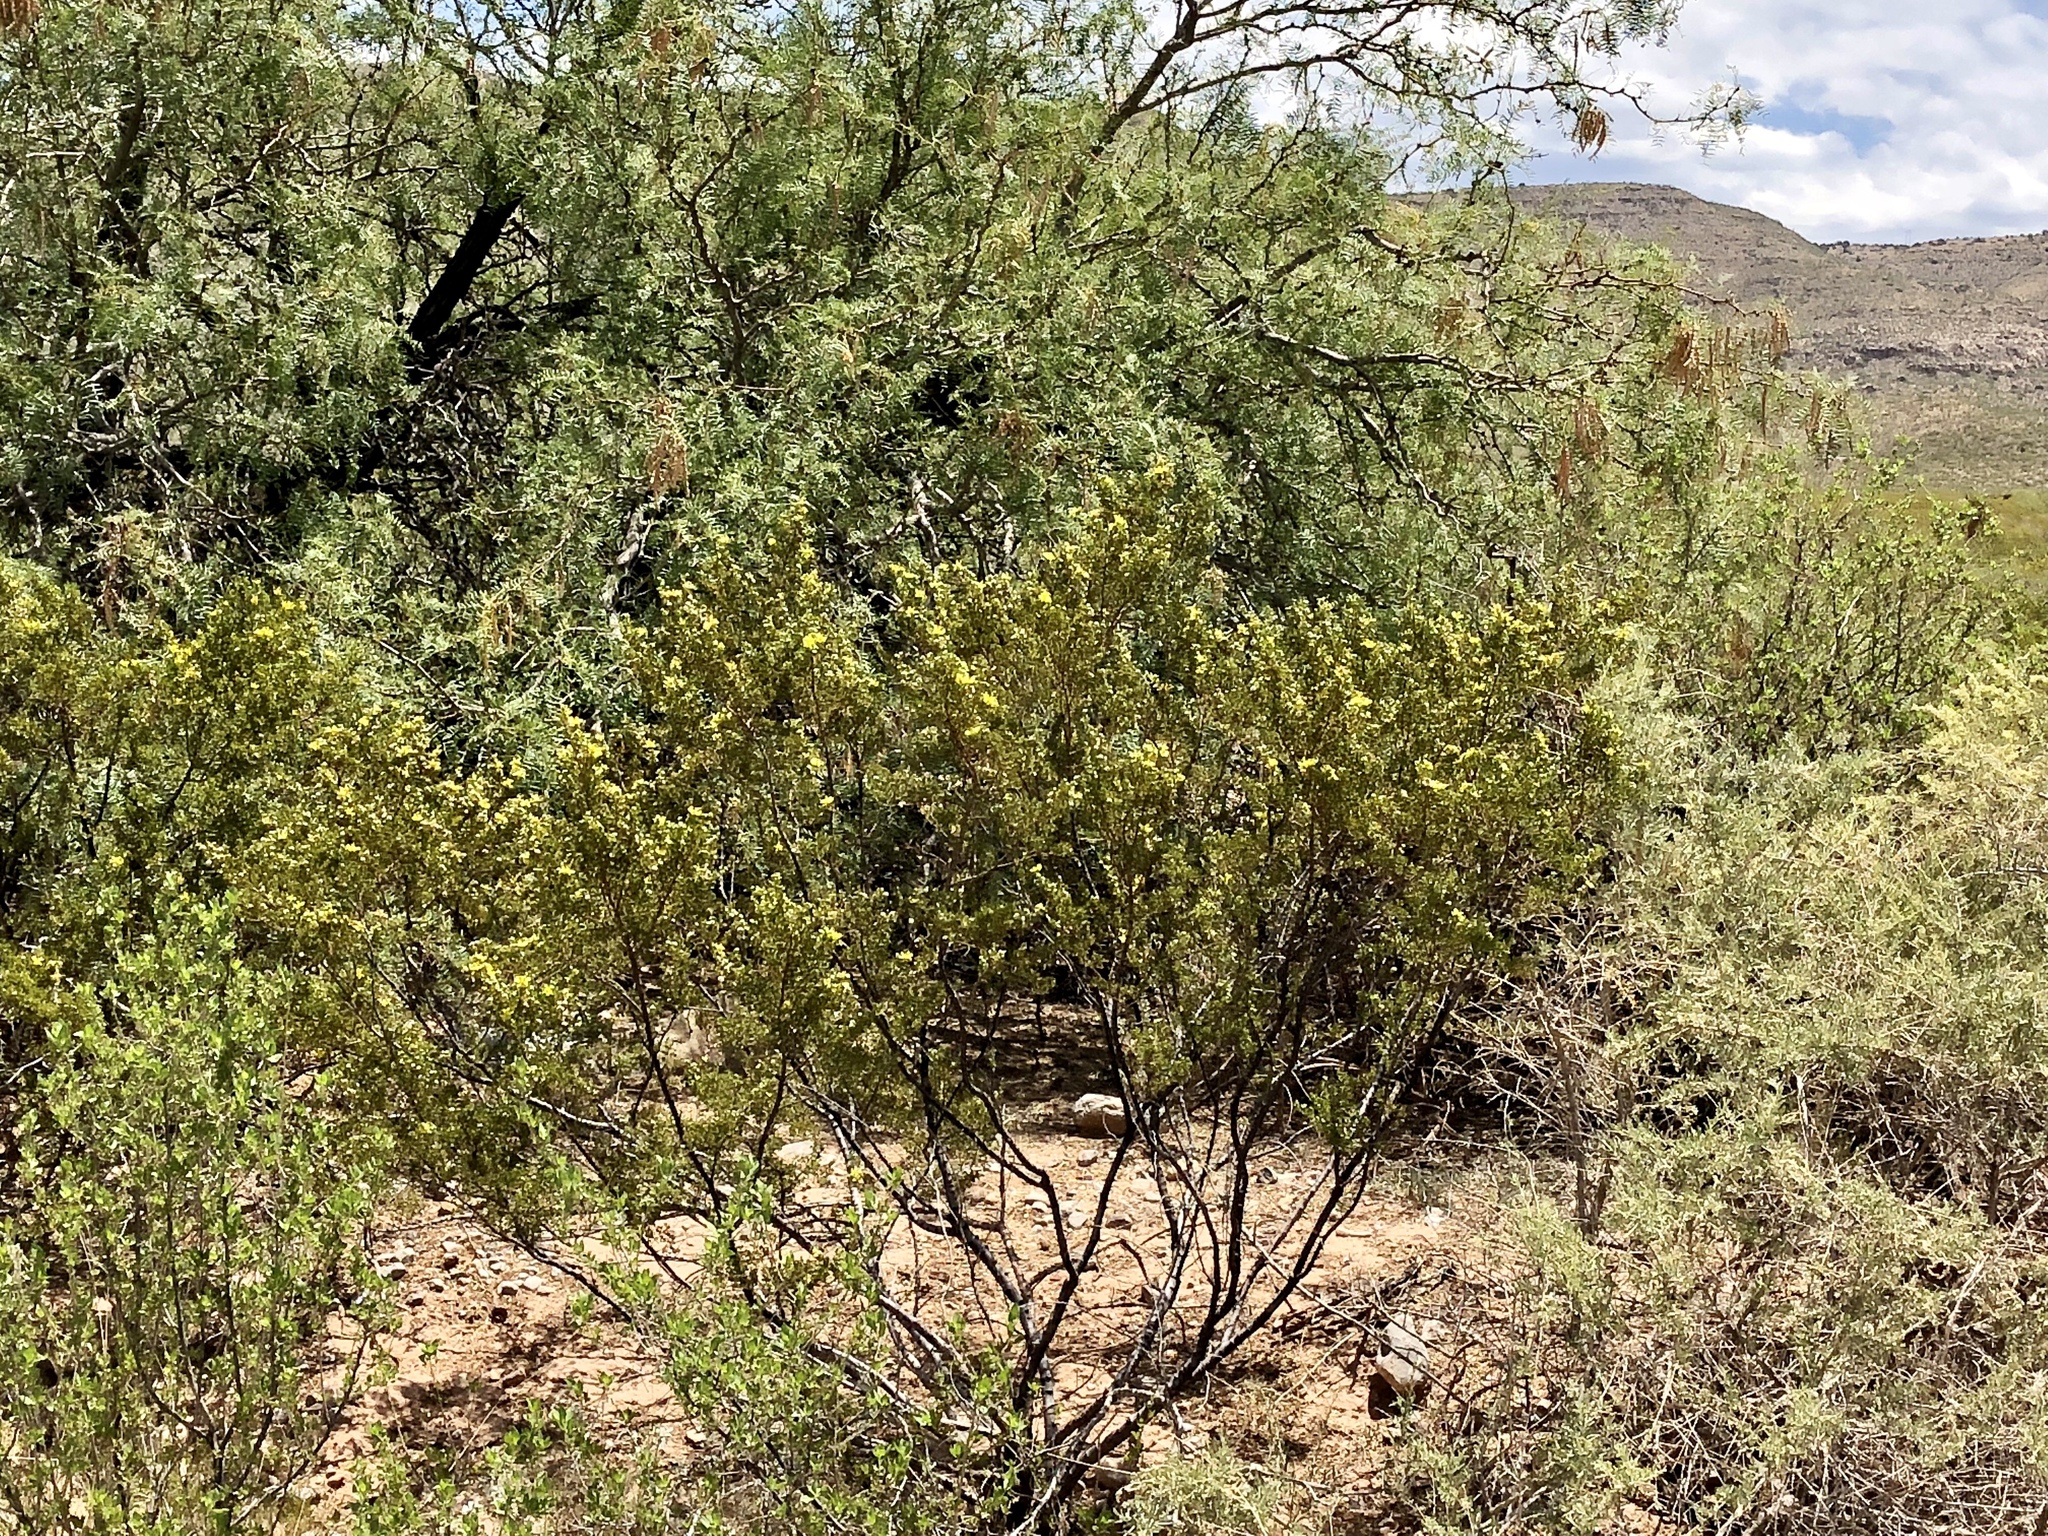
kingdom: Plantae
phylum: Tracheophyta
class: Magnoliopsida
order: Zygophyllales
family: Zygophyllaceae
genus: Larrea
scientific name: Larrea tridentata
